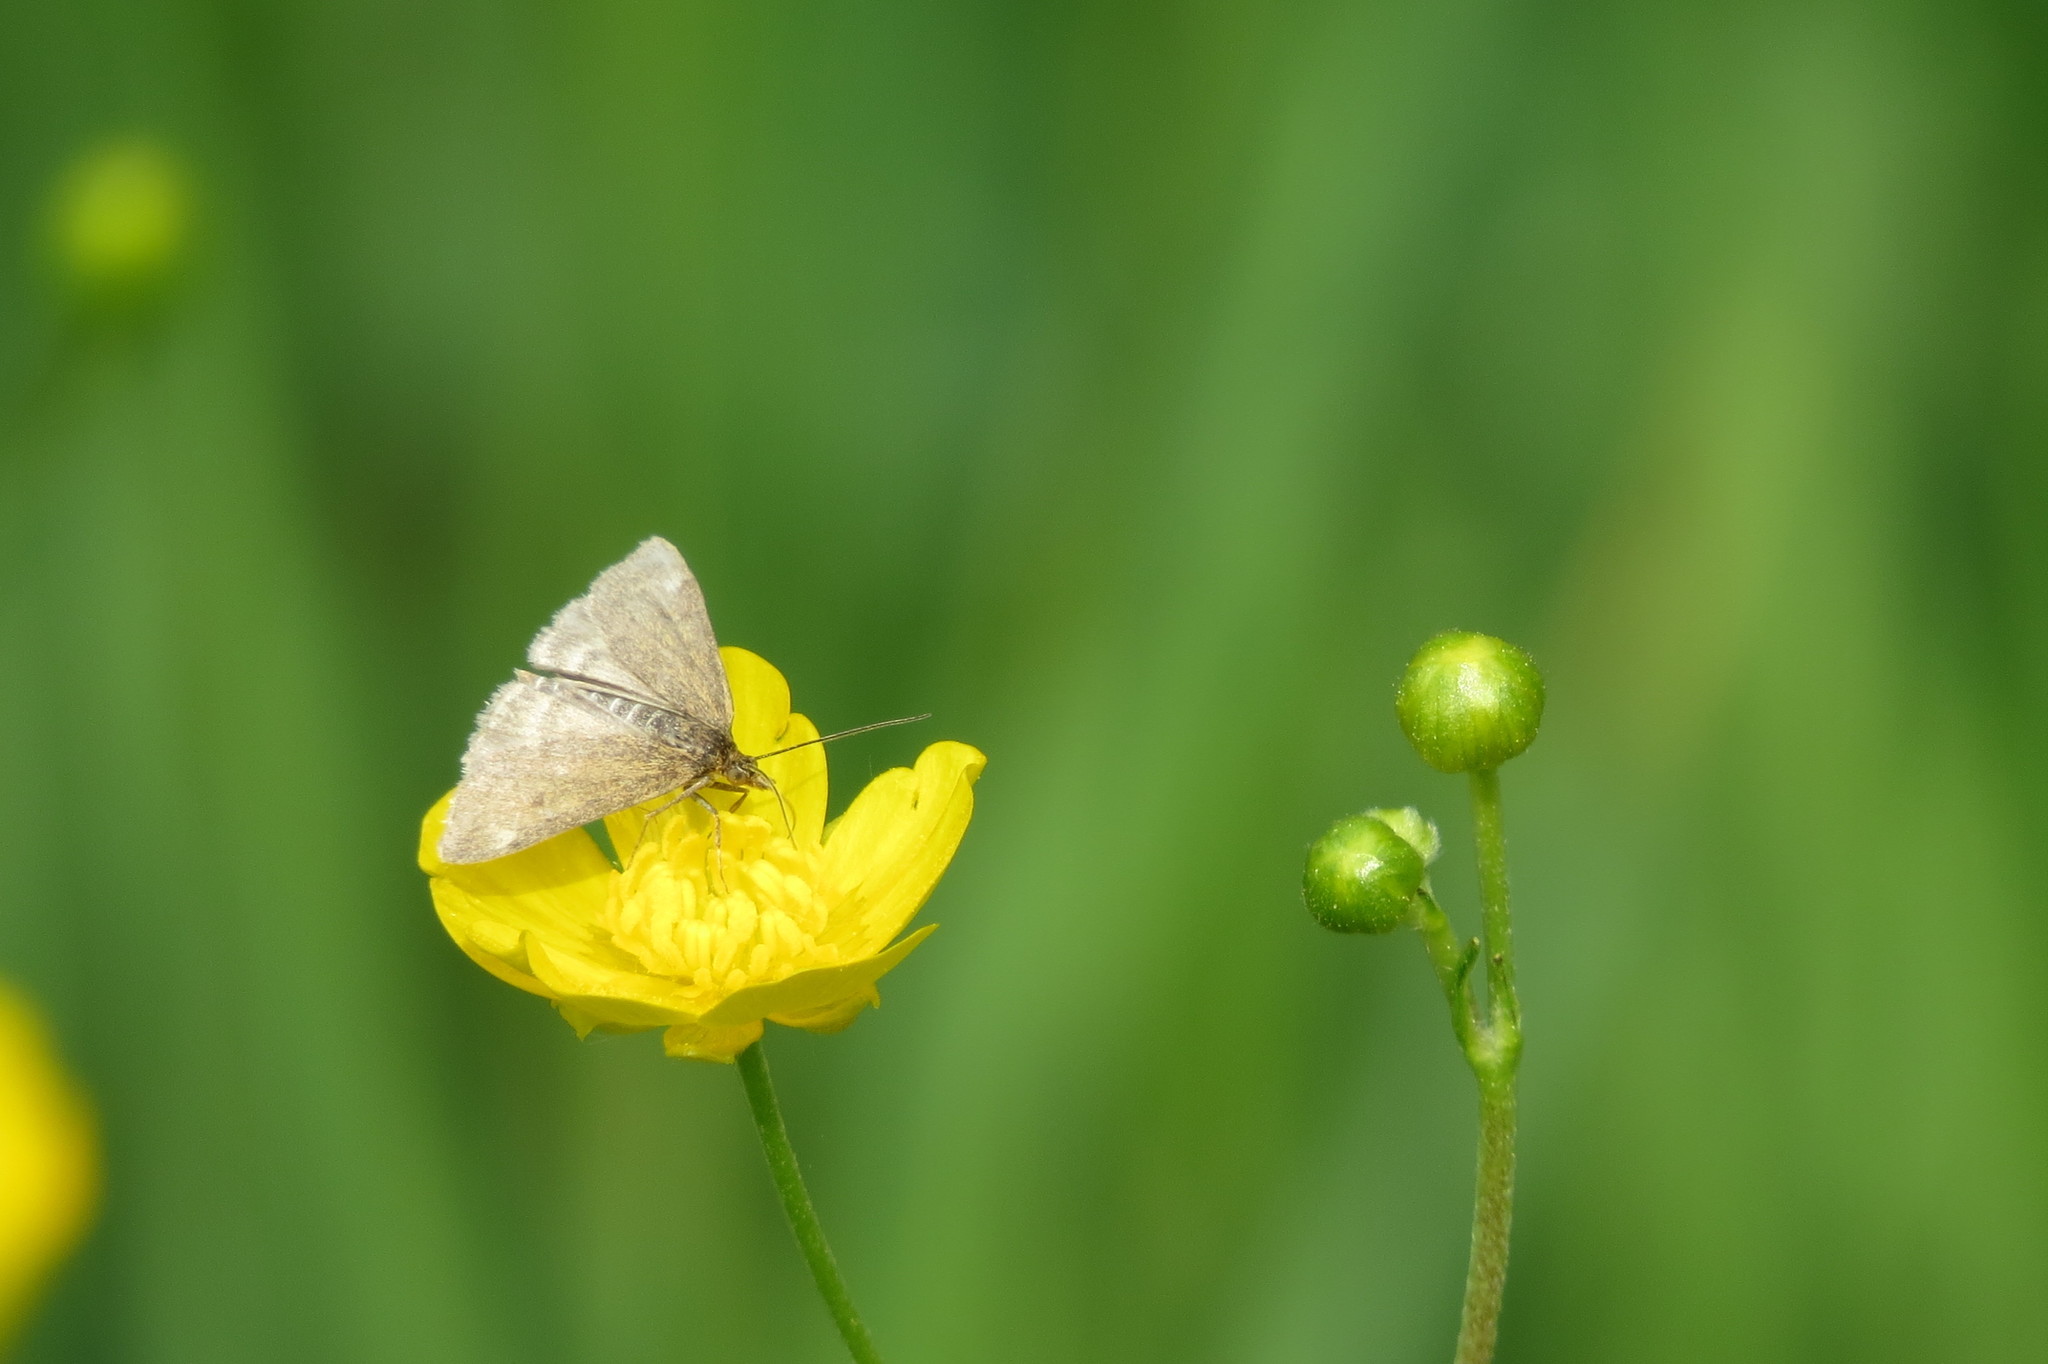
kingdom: Animalia
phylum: Arthropoda
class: Insecta
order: Lepidoptera
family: Crambidae
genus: Pyrausta
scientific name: Pyrausta despicata
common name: Straw-barred pearl
